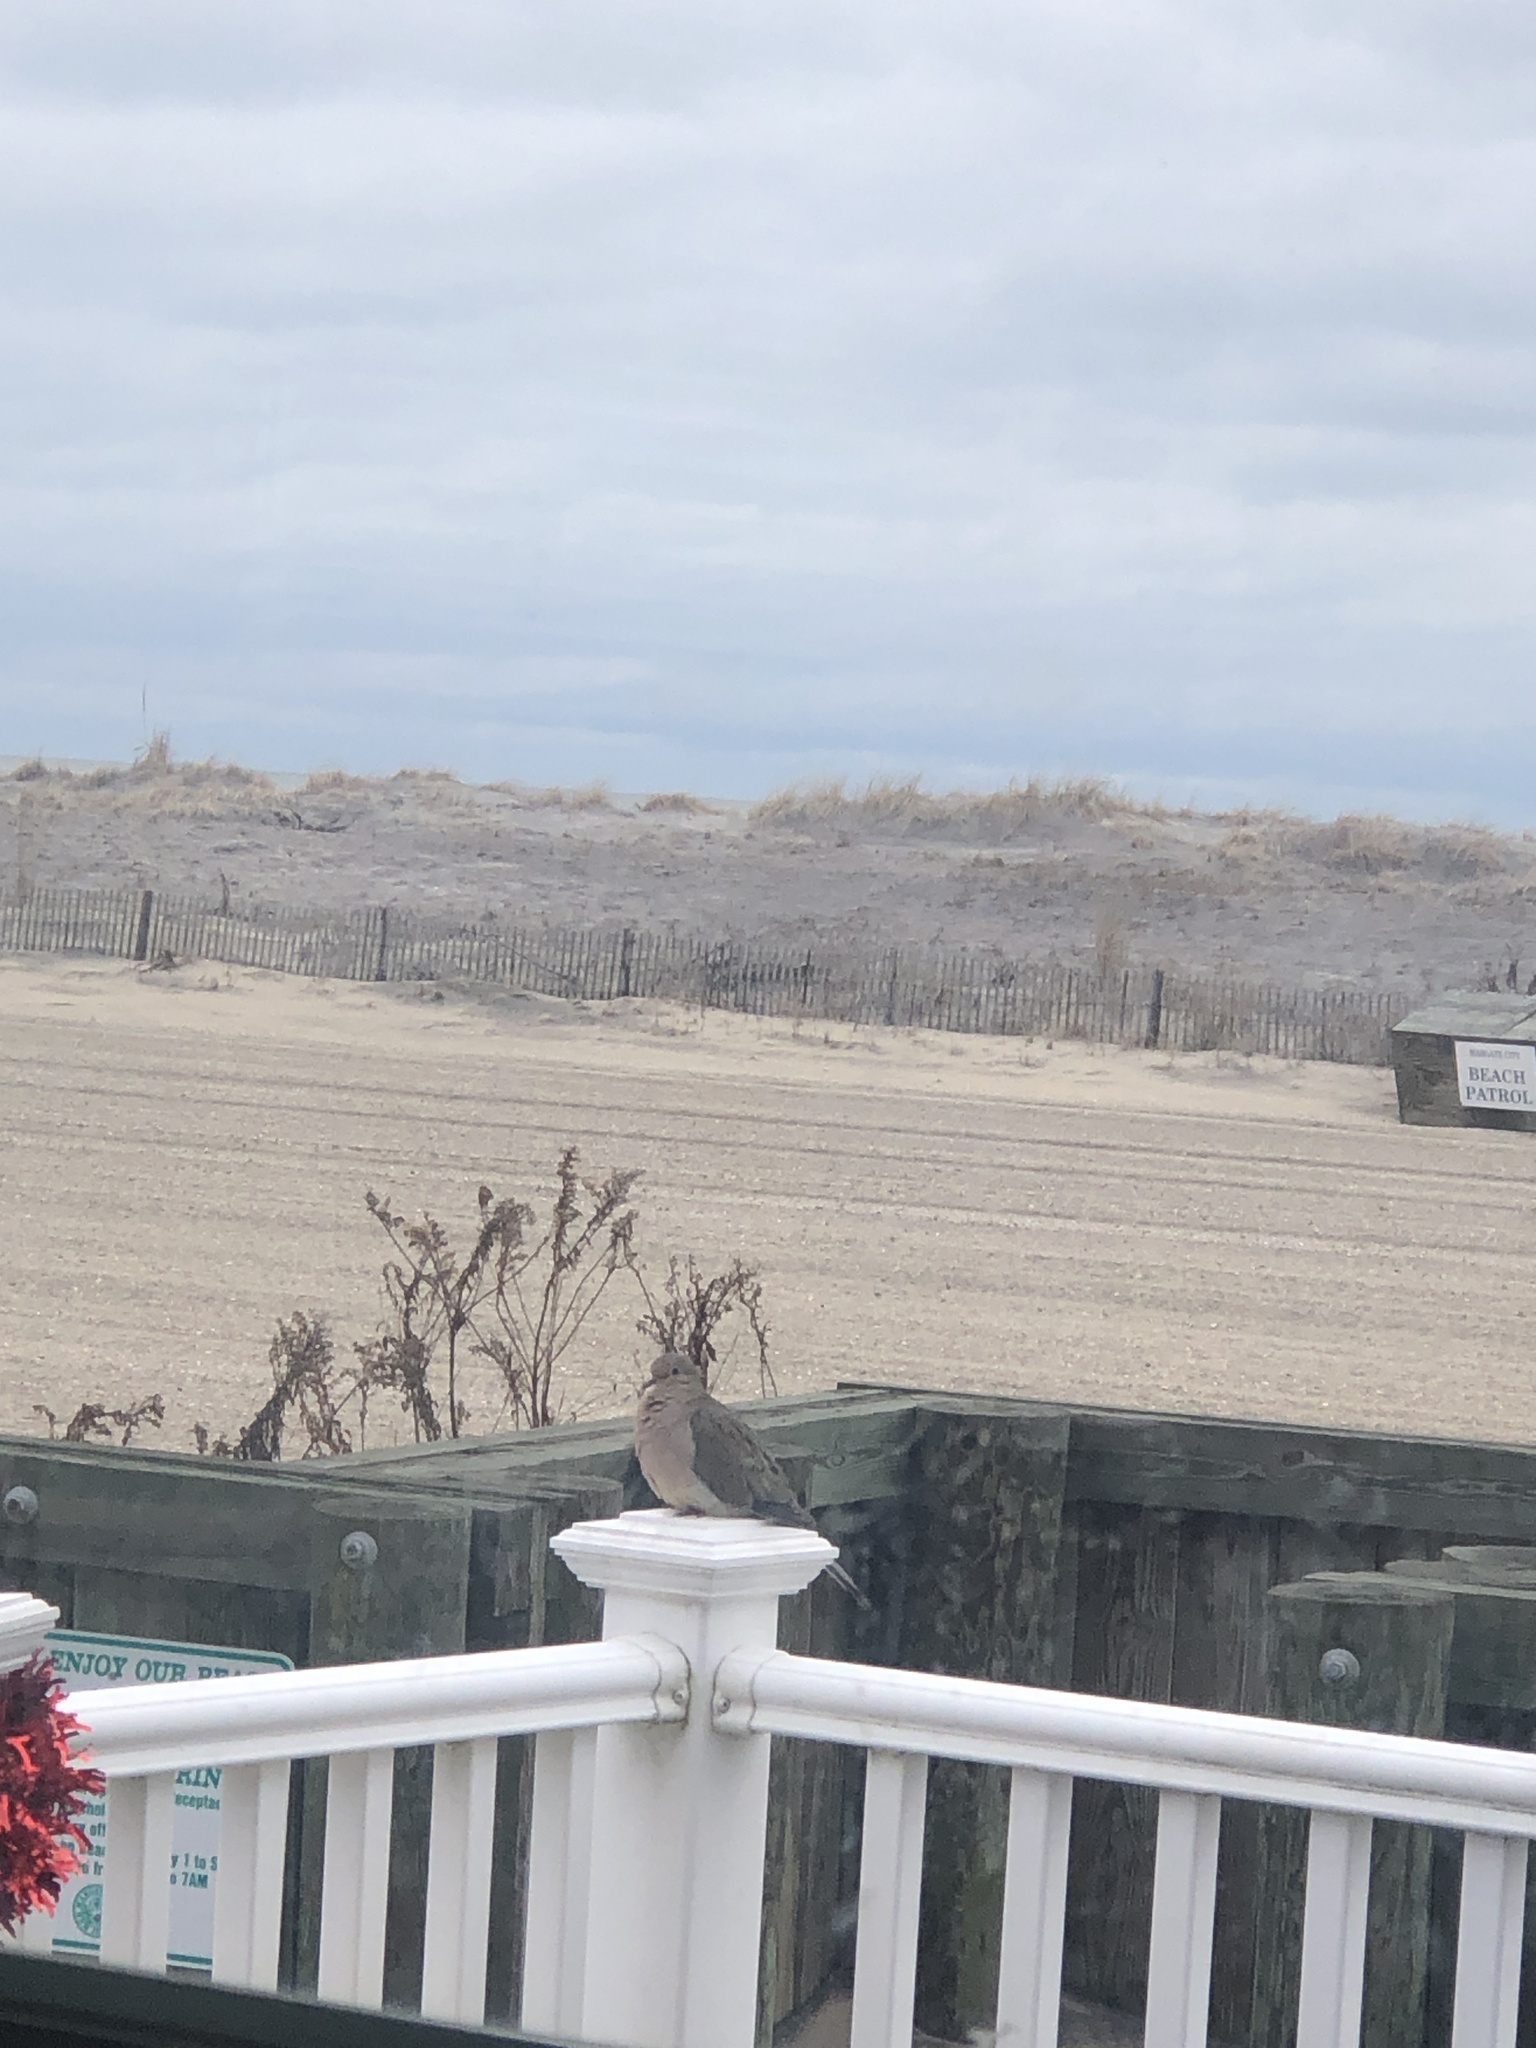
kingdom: Animalia
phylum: Chordata
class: Aves
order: Columbiformes
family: Columbidae
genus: Zenaida
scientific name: Zenaida macroura
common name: Mourning dove
